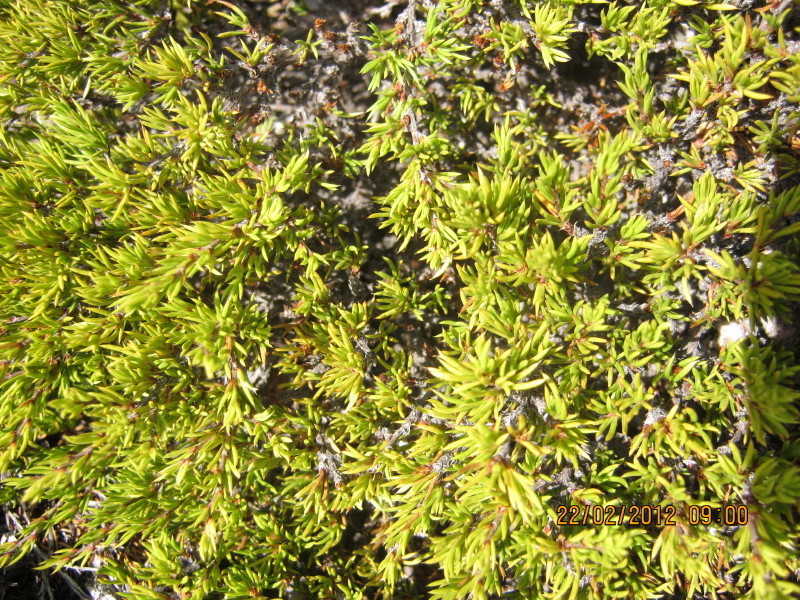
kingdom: Plantae
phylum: Tracheophyta
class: Magnoliopsida
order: Rosales
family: Rosaceae
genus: Cliffortia
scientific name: Cliffortia neglecta
